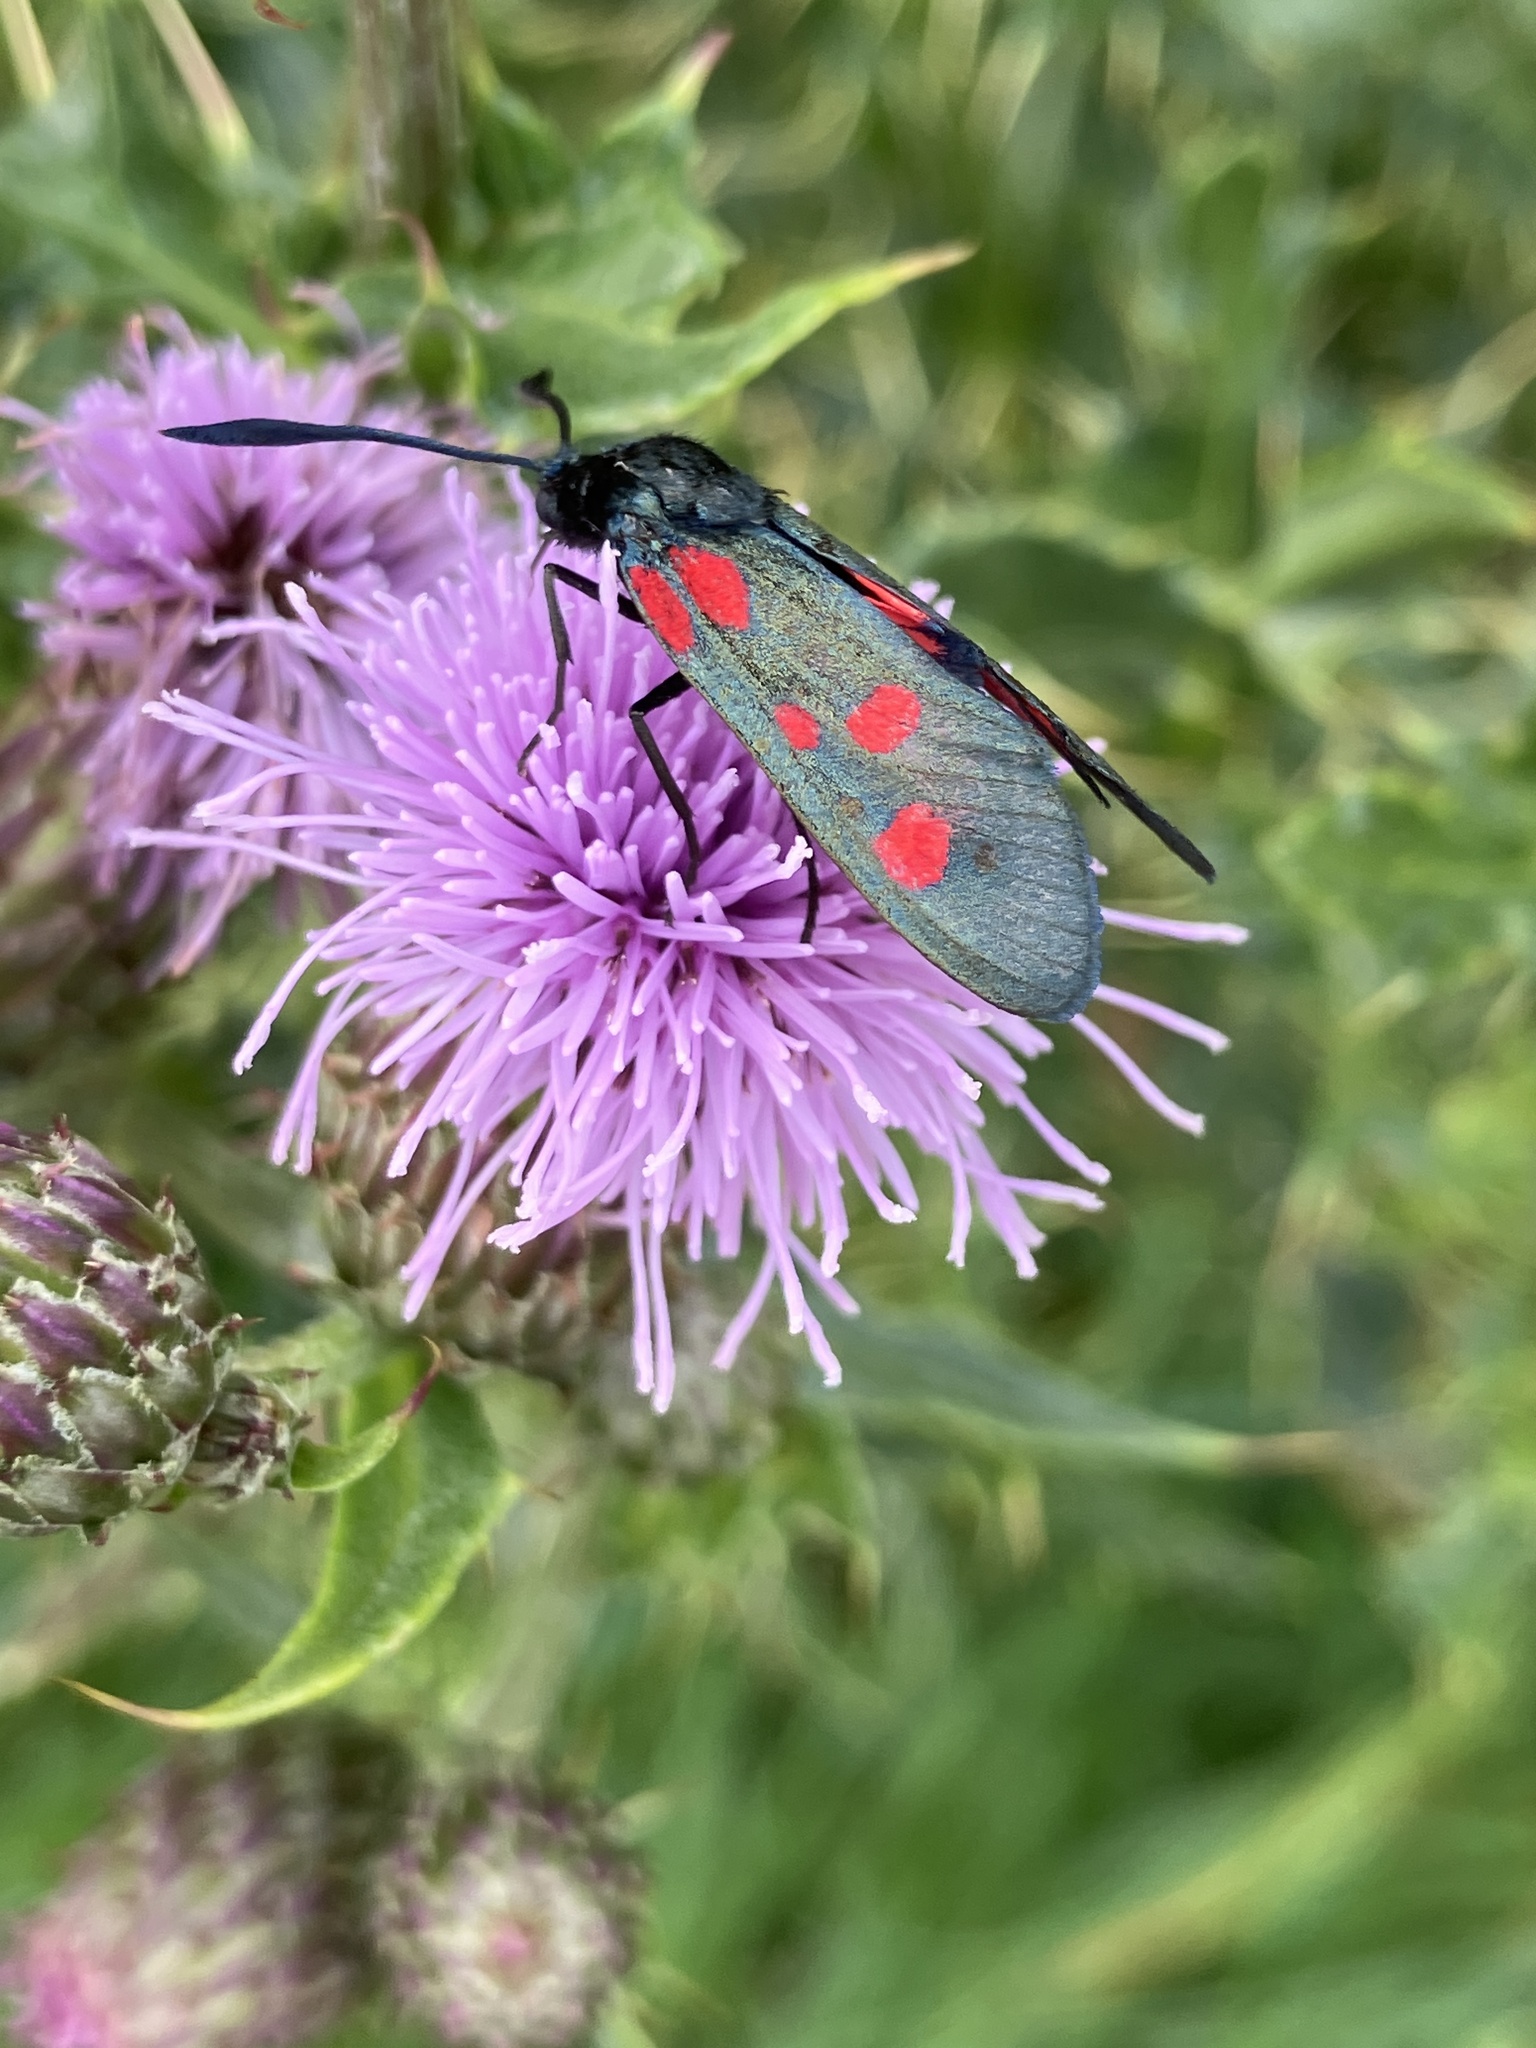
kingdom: Animalia
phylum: Arthropoda
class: Insecta
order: Lepidoptera
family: Zygaenidae
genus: Zygaena
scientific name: Zygaena lonicerae
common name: Narrow-bordered five-spot burnet
